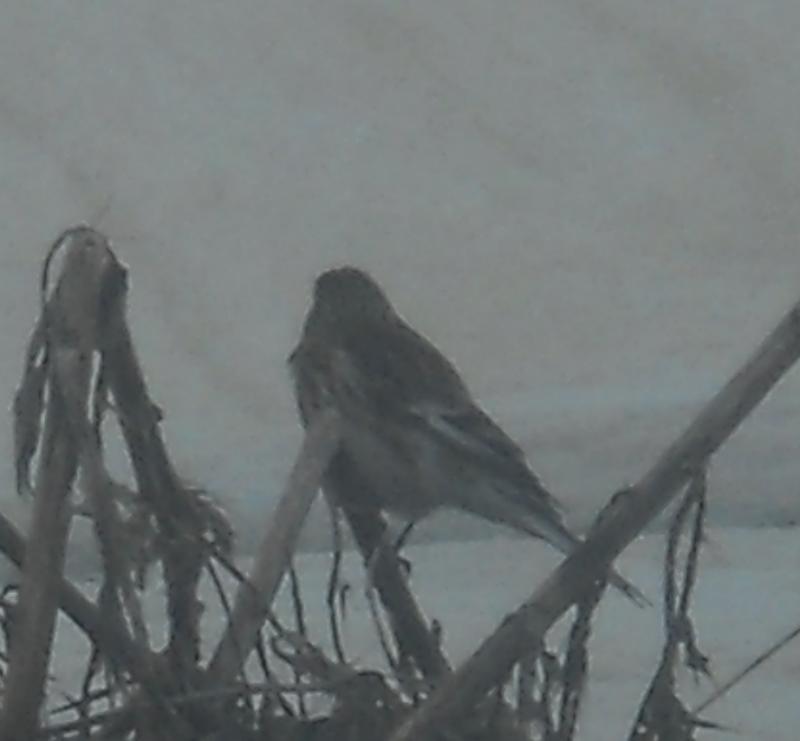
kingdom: Animalia
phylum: Chordata
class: Aves
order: Passeriformes
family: Fringillidae
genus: Linaria
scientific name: Linaria flavirostris
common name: Twite
